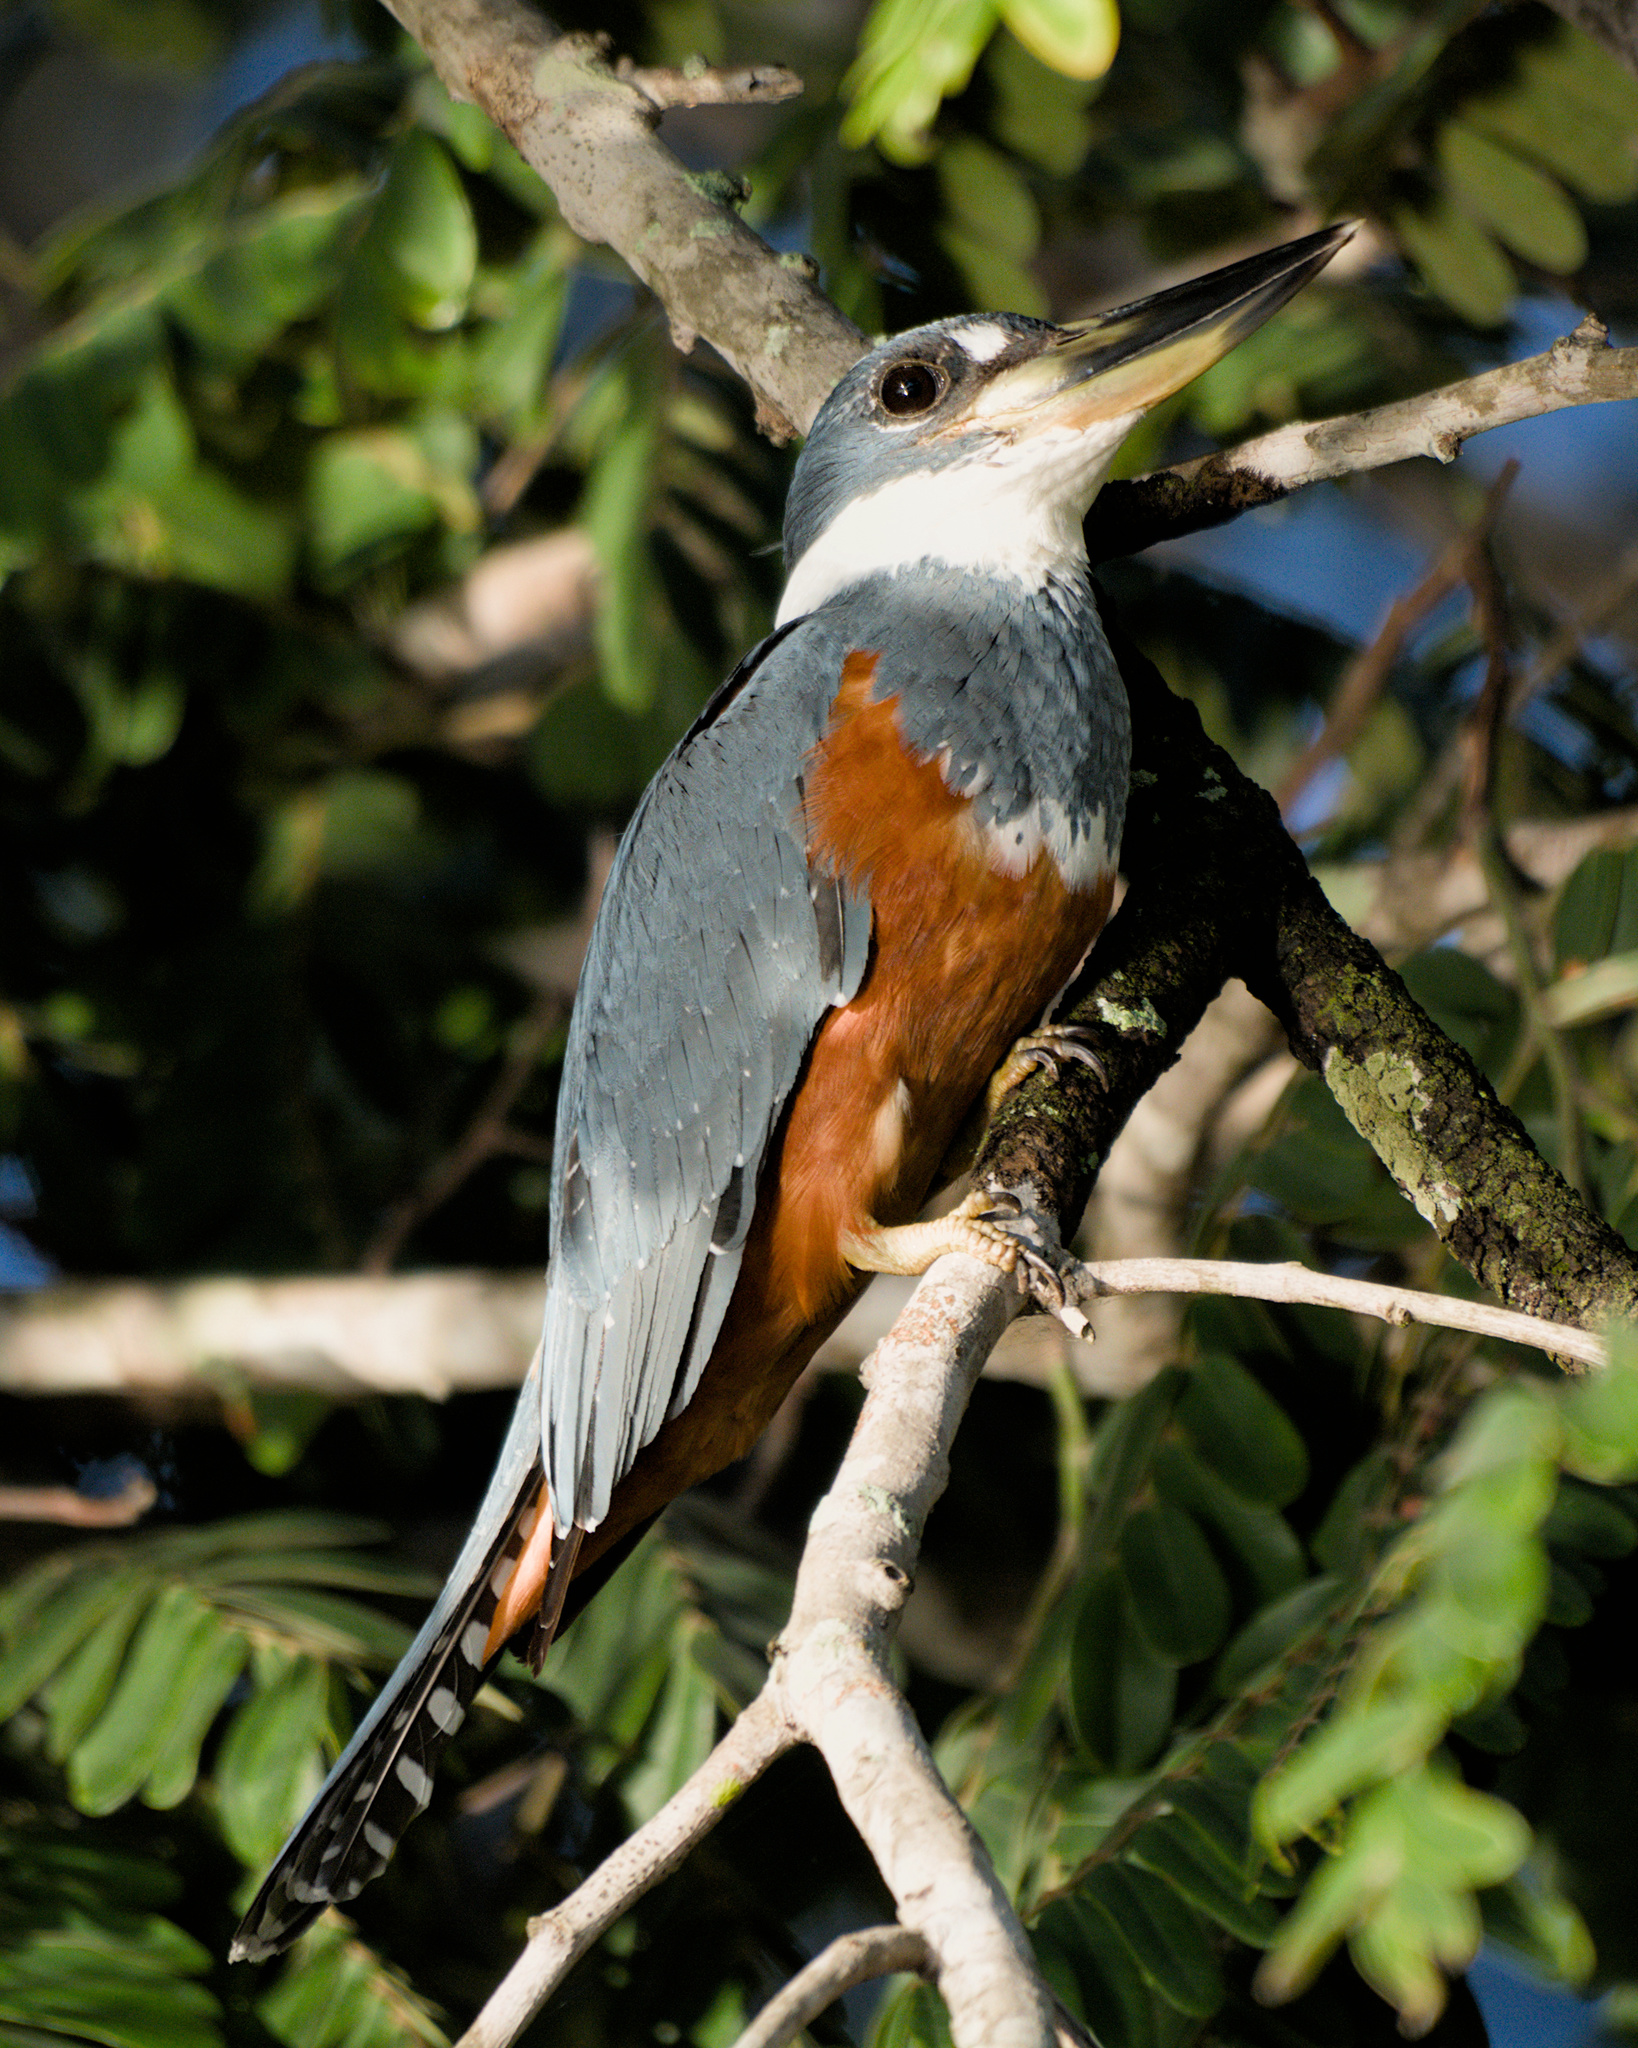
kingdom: Animalia
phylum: Chordata
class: Aves
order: Coraciiformes
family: Alcedinidae
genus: Megaceryle
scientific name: Megaceryle torquata
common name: Ringed kingfisher
